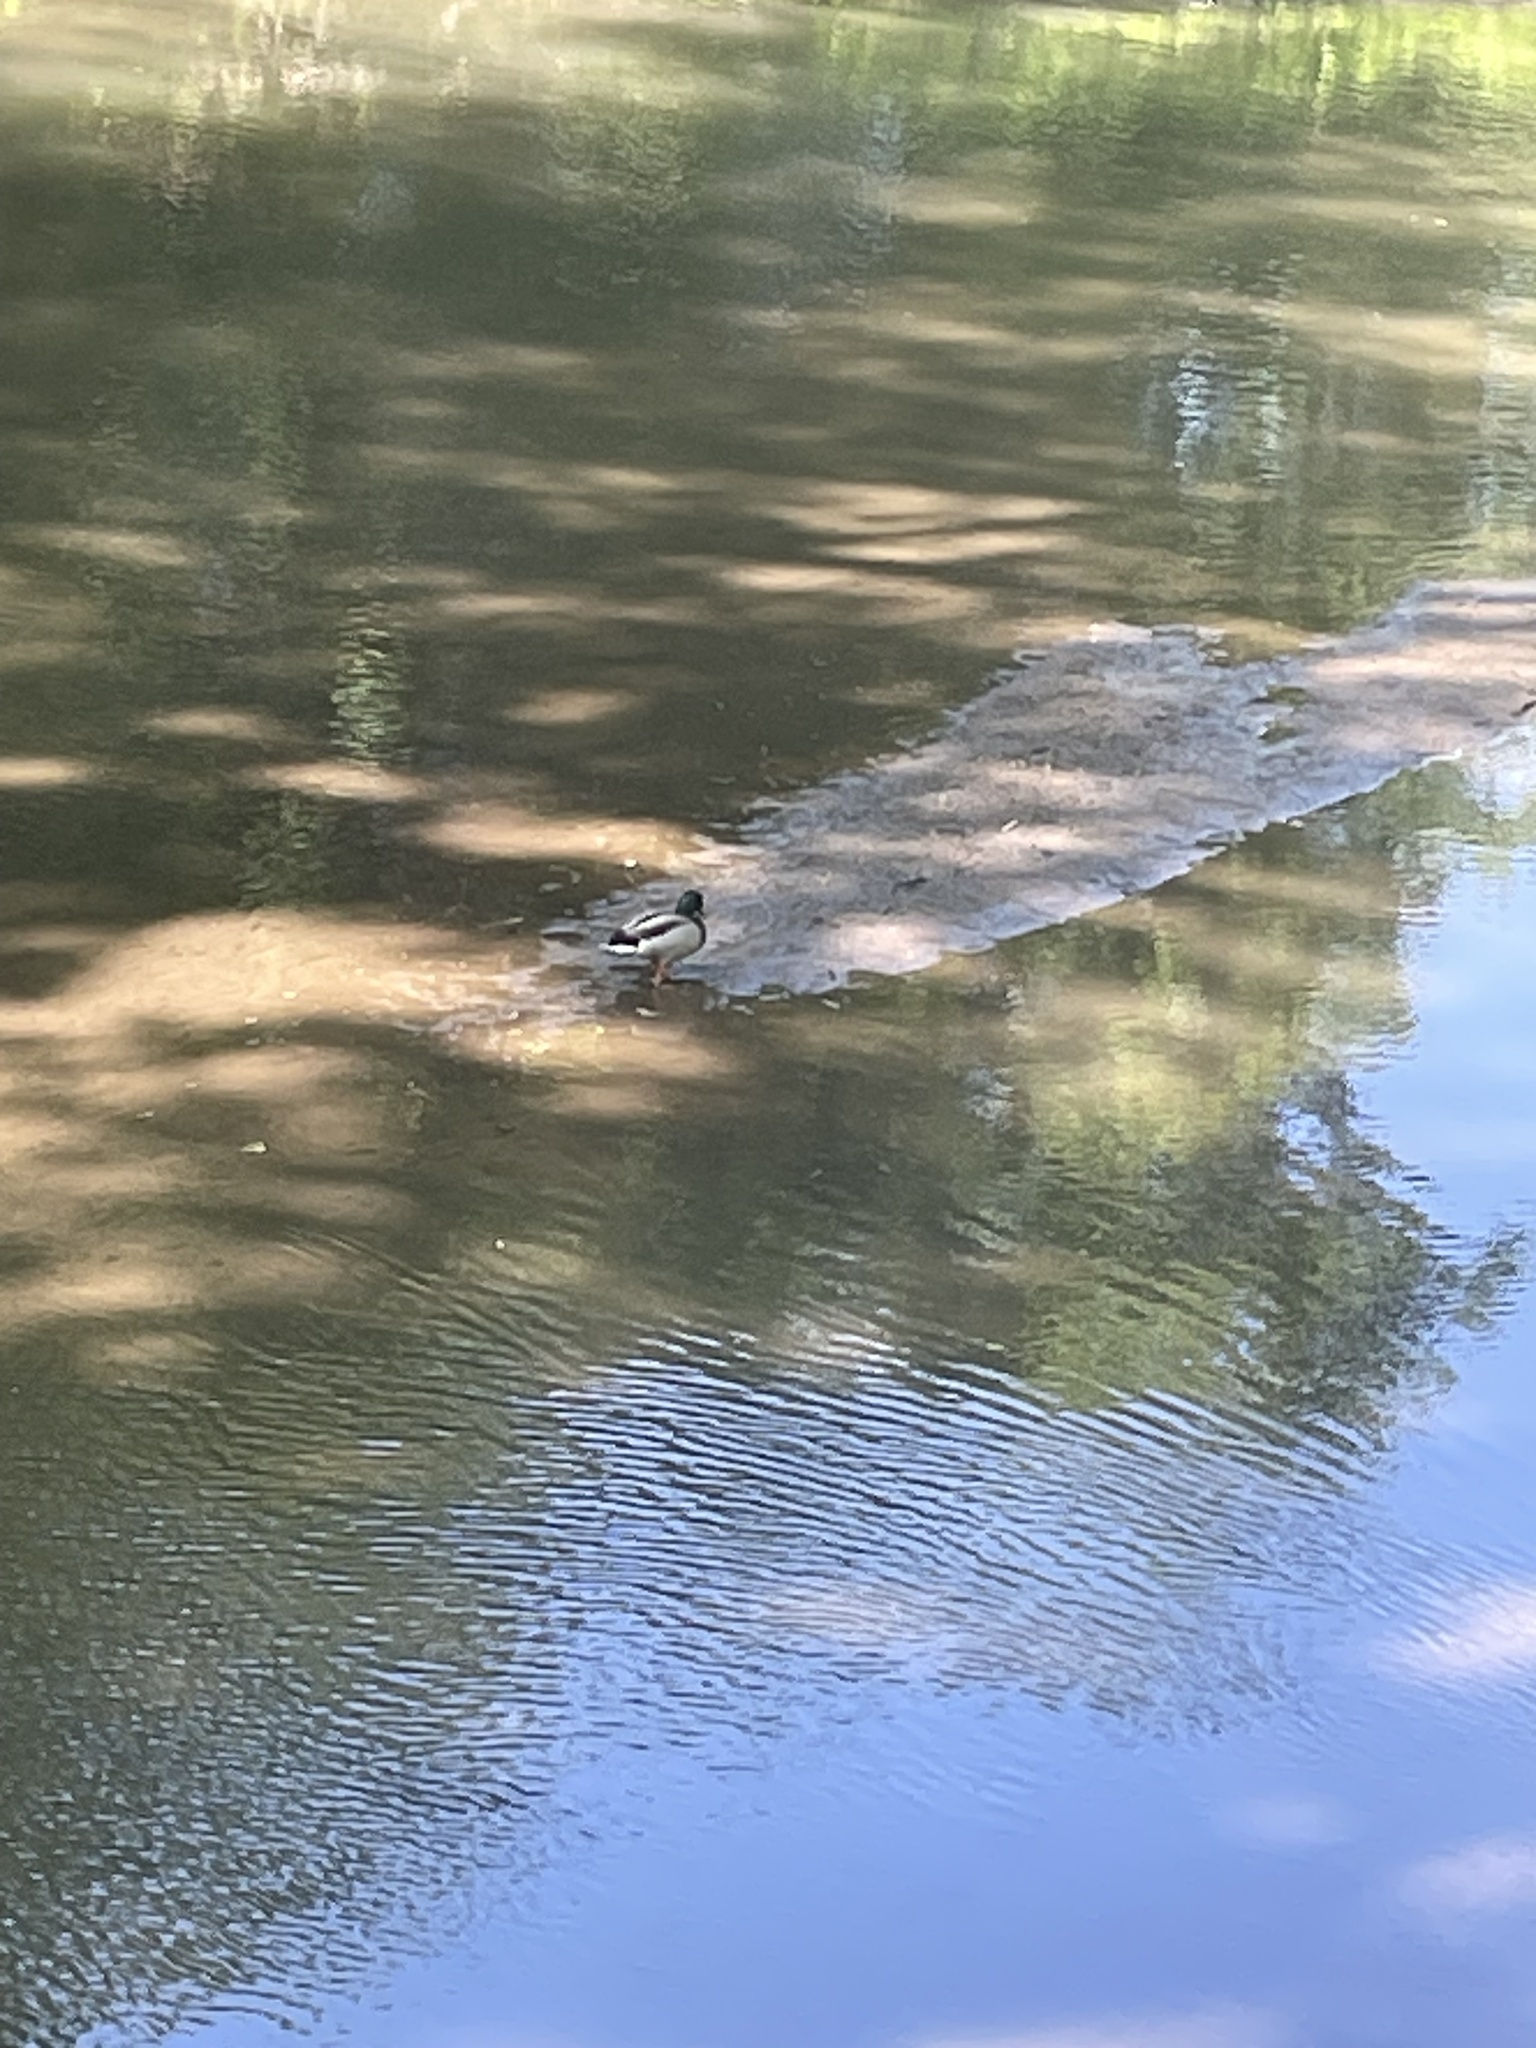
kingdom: Animalia
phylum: Chordata
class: Aves
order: Anseriformes
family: Anatidae
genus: Anas
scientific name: Anas platyrhynchos
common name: Mallard
